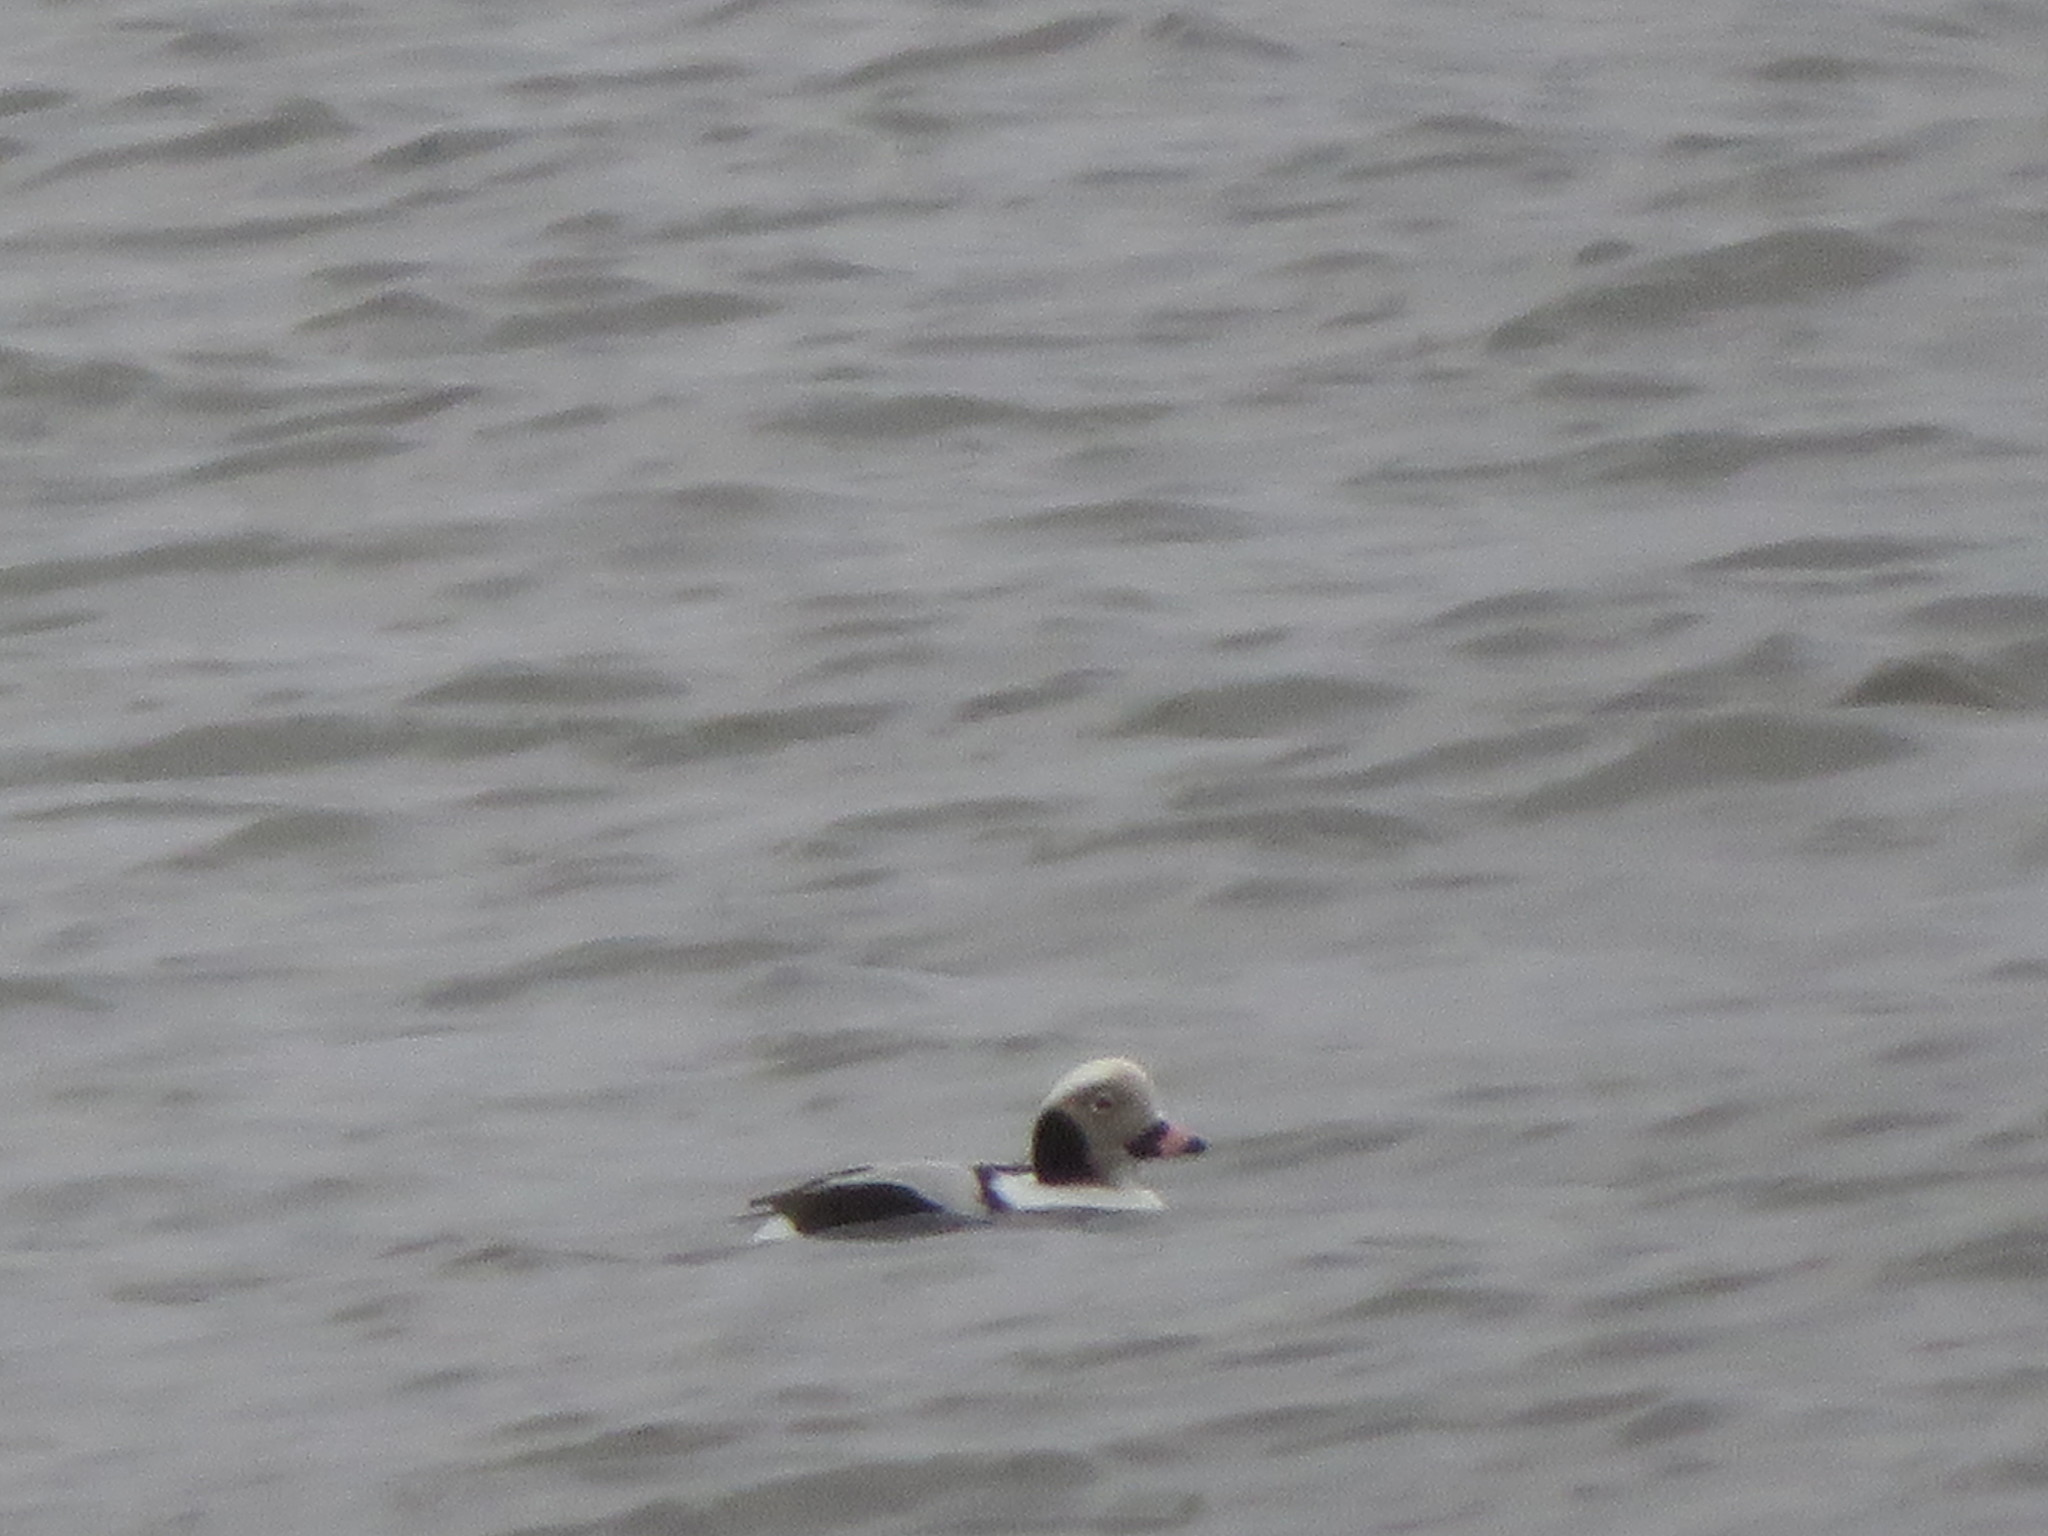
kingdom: Animalia
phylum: Chordata
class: Aves
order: Anseriformes
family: Anatidae
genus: Clangula
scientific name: Clangula hyemalis
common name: Long-tailed duck
